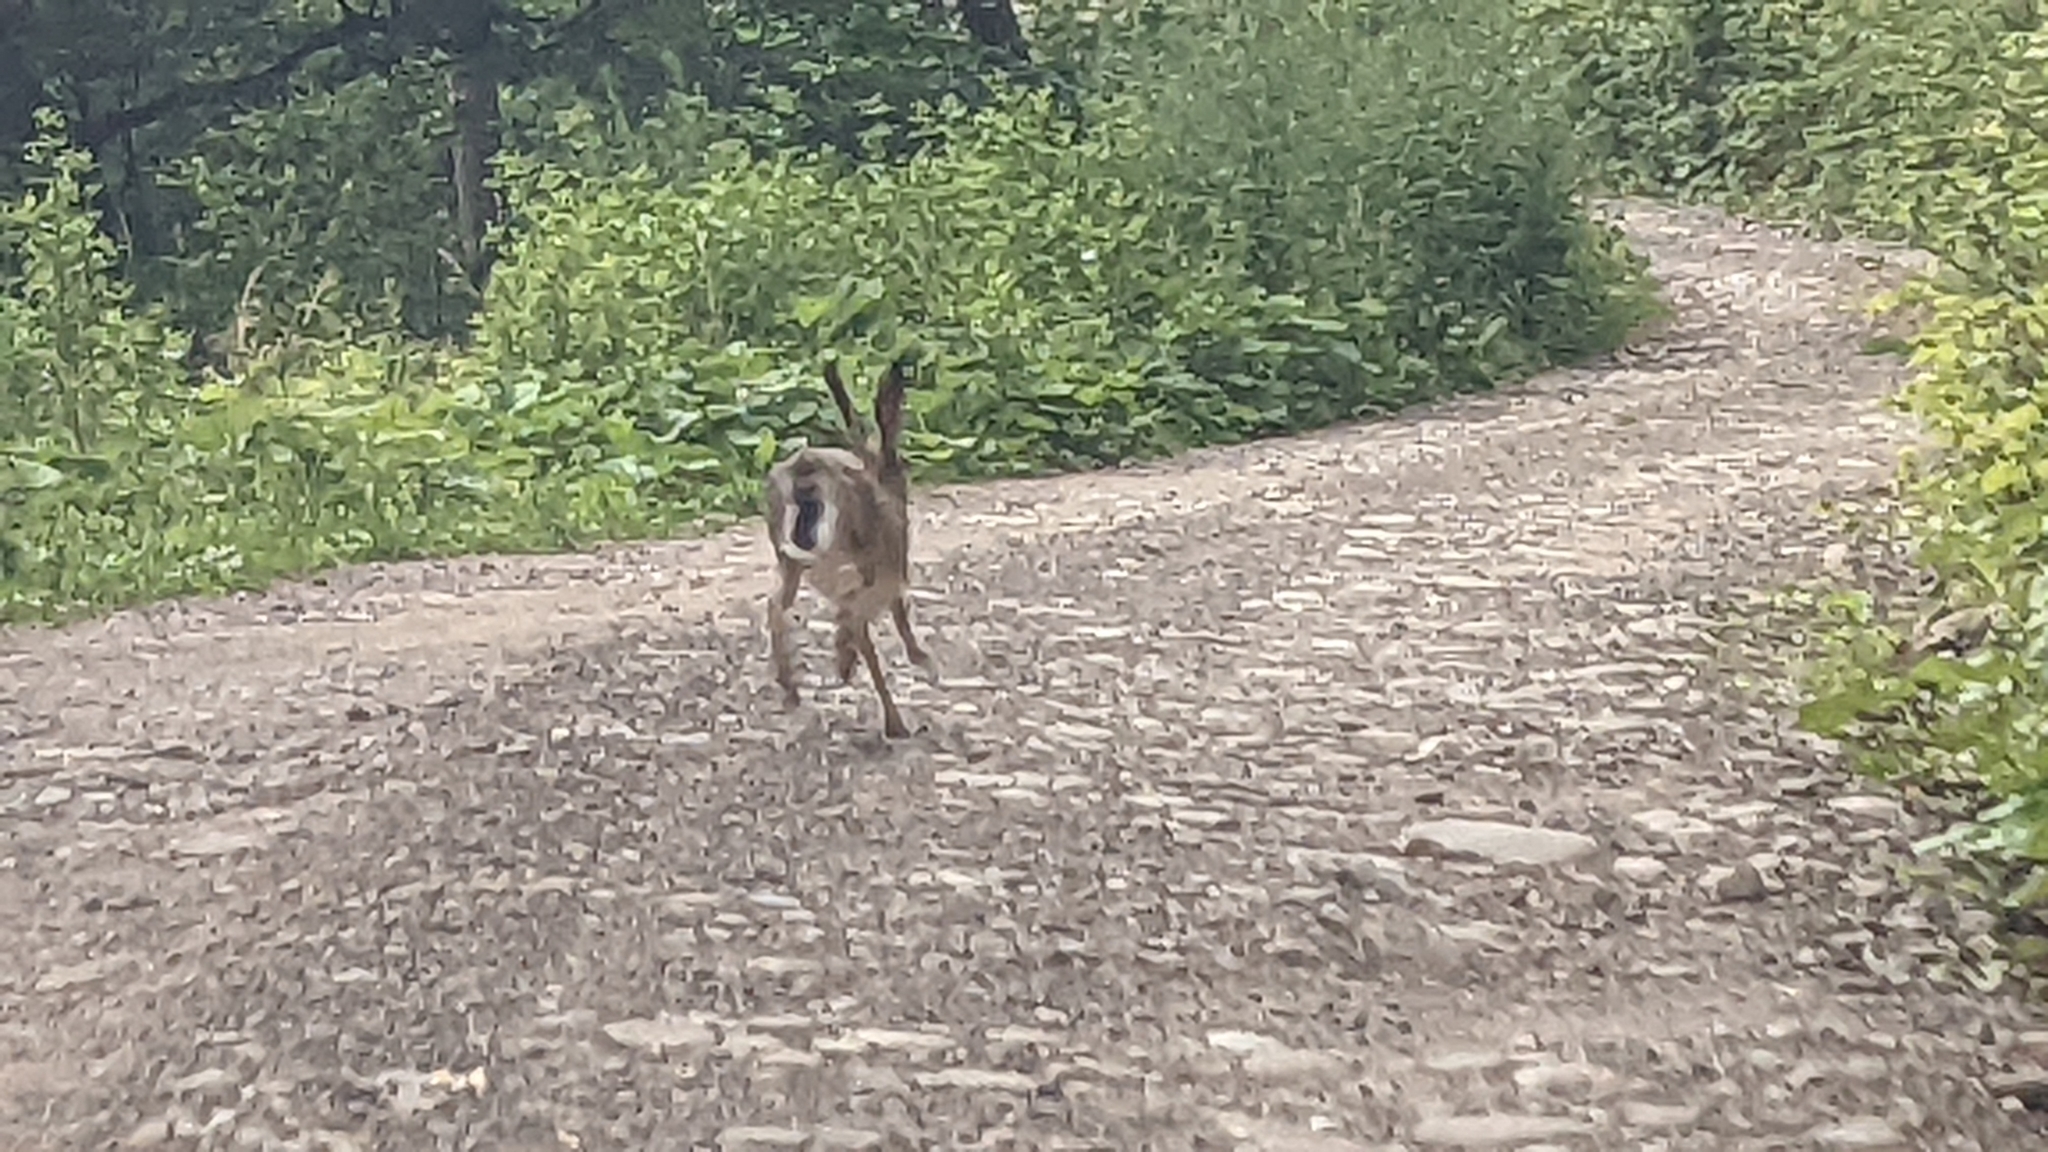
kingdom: Animalia
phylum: Chordata
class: Mammalia
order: Lagomorpha
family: Leporidae
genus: Lepus
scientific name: Lepus europaeus
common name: European hare
